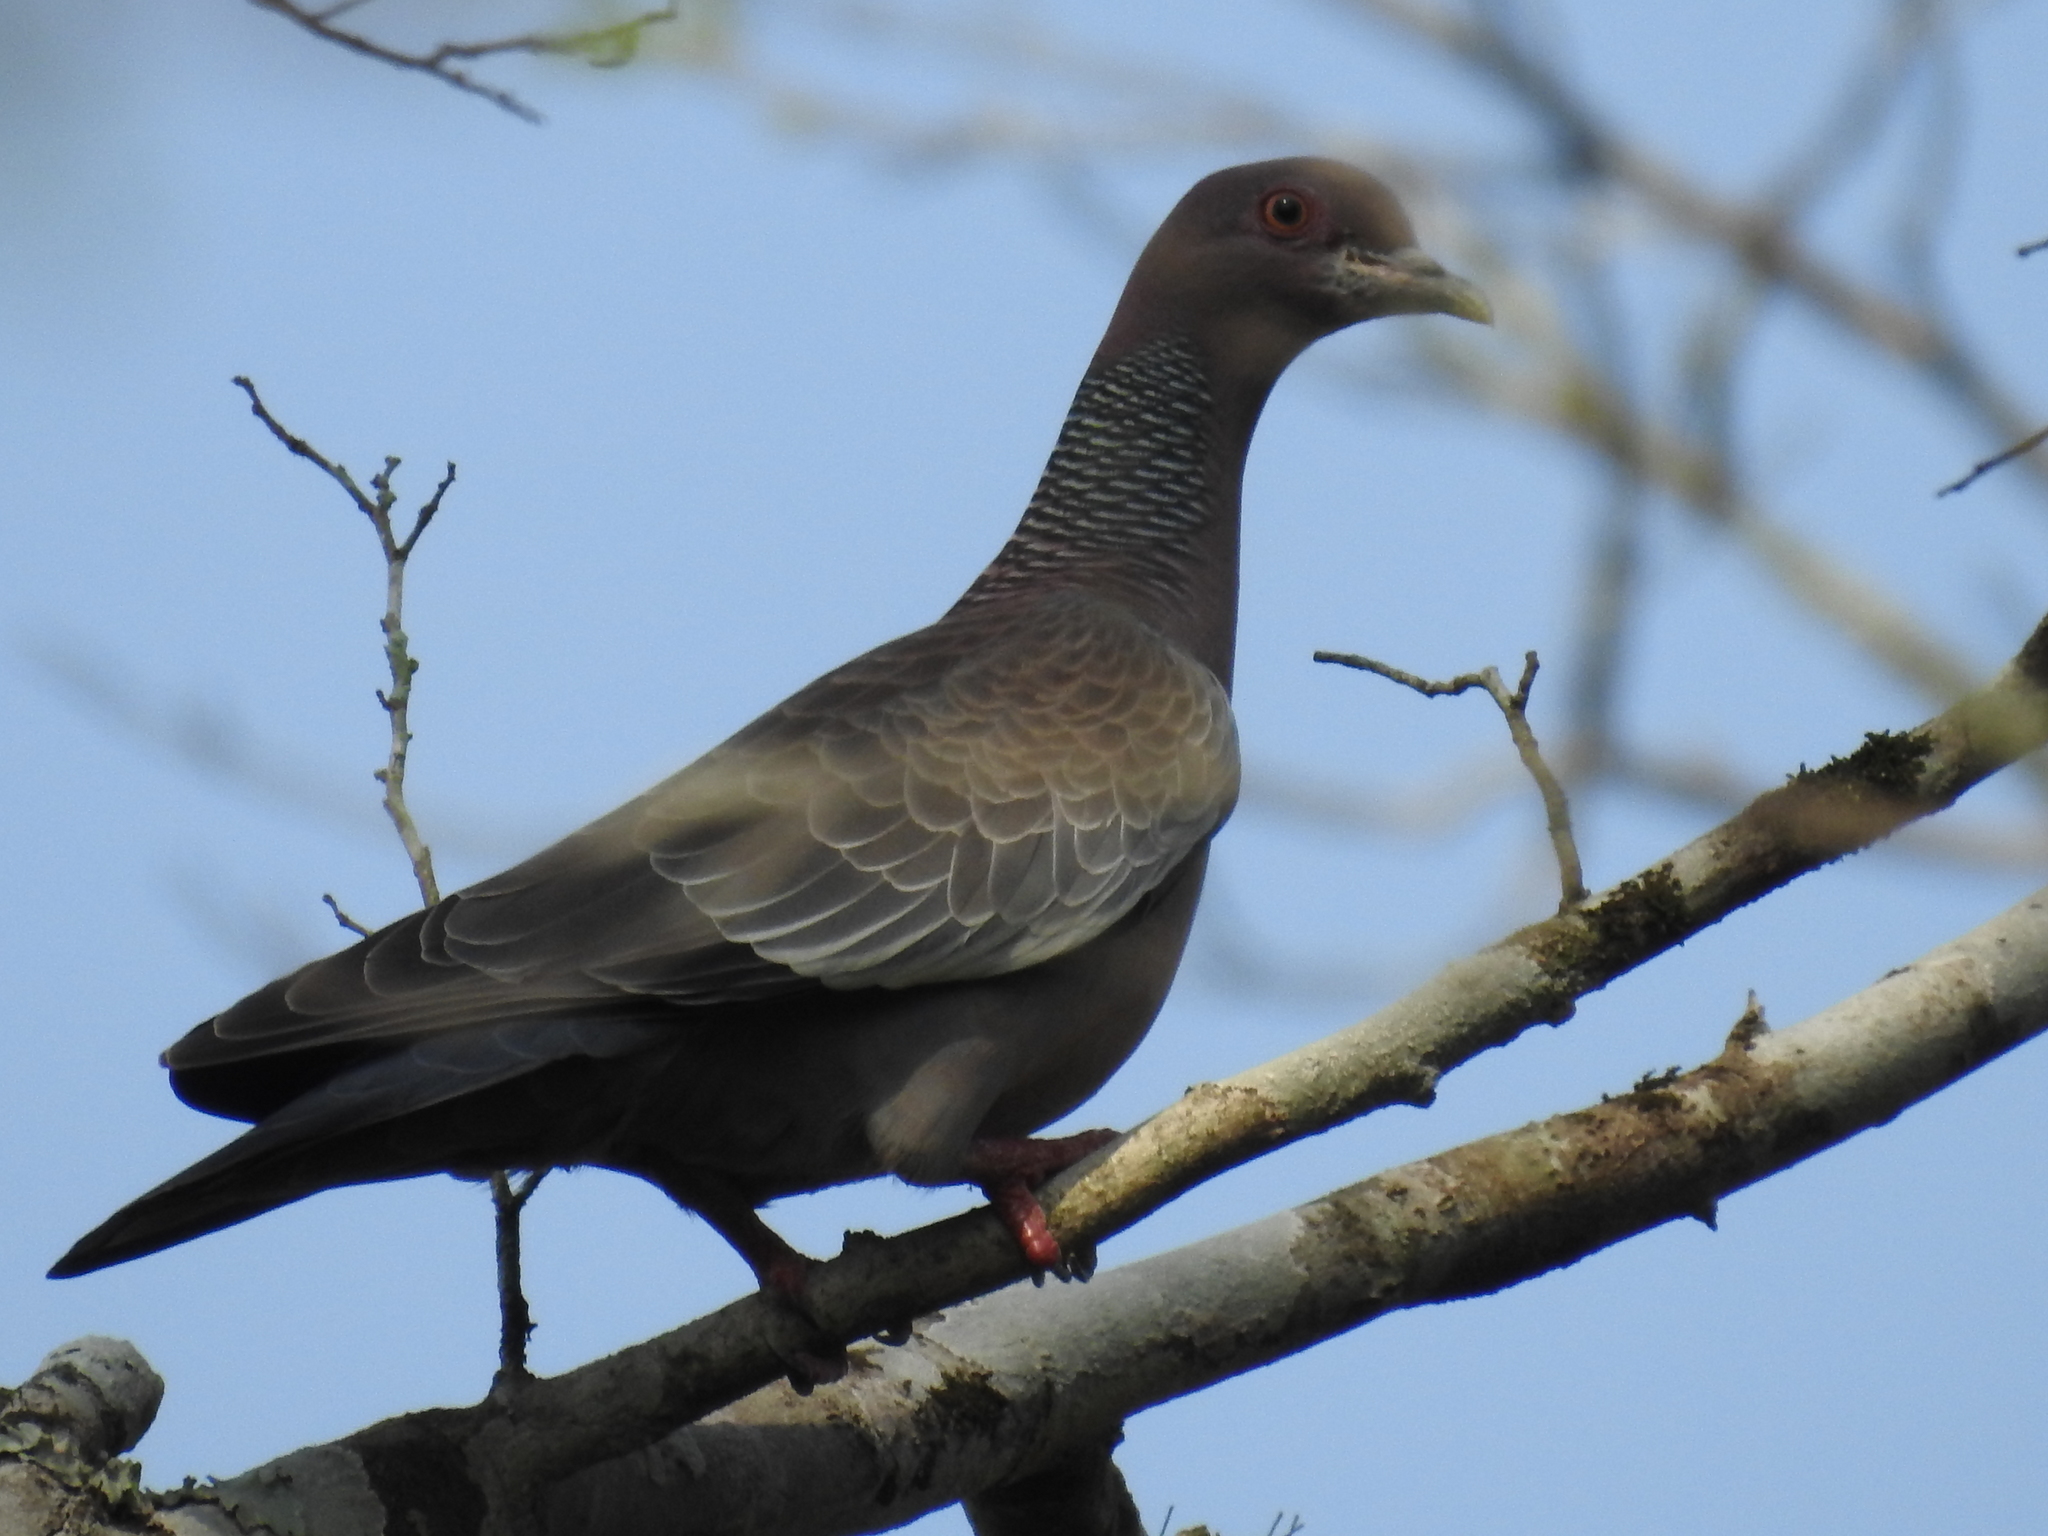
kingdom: Animalia
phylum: Chordata
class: Aves
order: Columbiformes
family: Columbidae
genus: Patagioenas
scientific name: Patagioenas picazuro
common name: Picazuro pigeon
